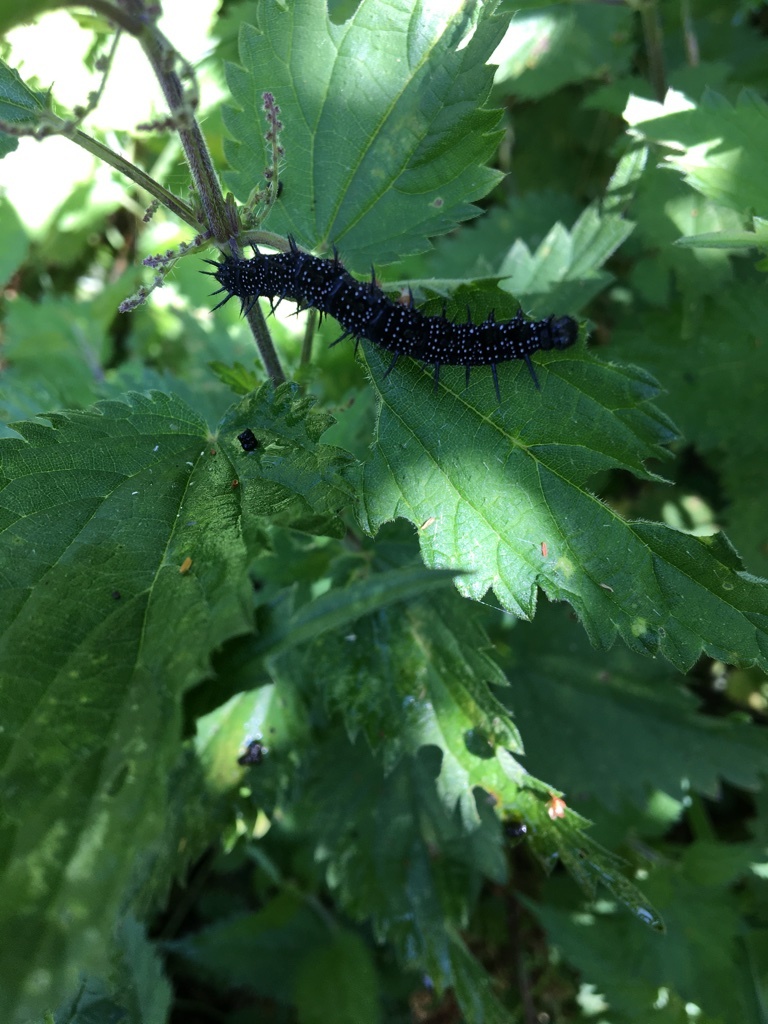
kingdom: Animalia
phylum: Arthropoda
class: Insecta
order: Lepidoptera
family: Nymphalidae
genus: Aglais
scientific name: Aglais io
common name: Peacock
